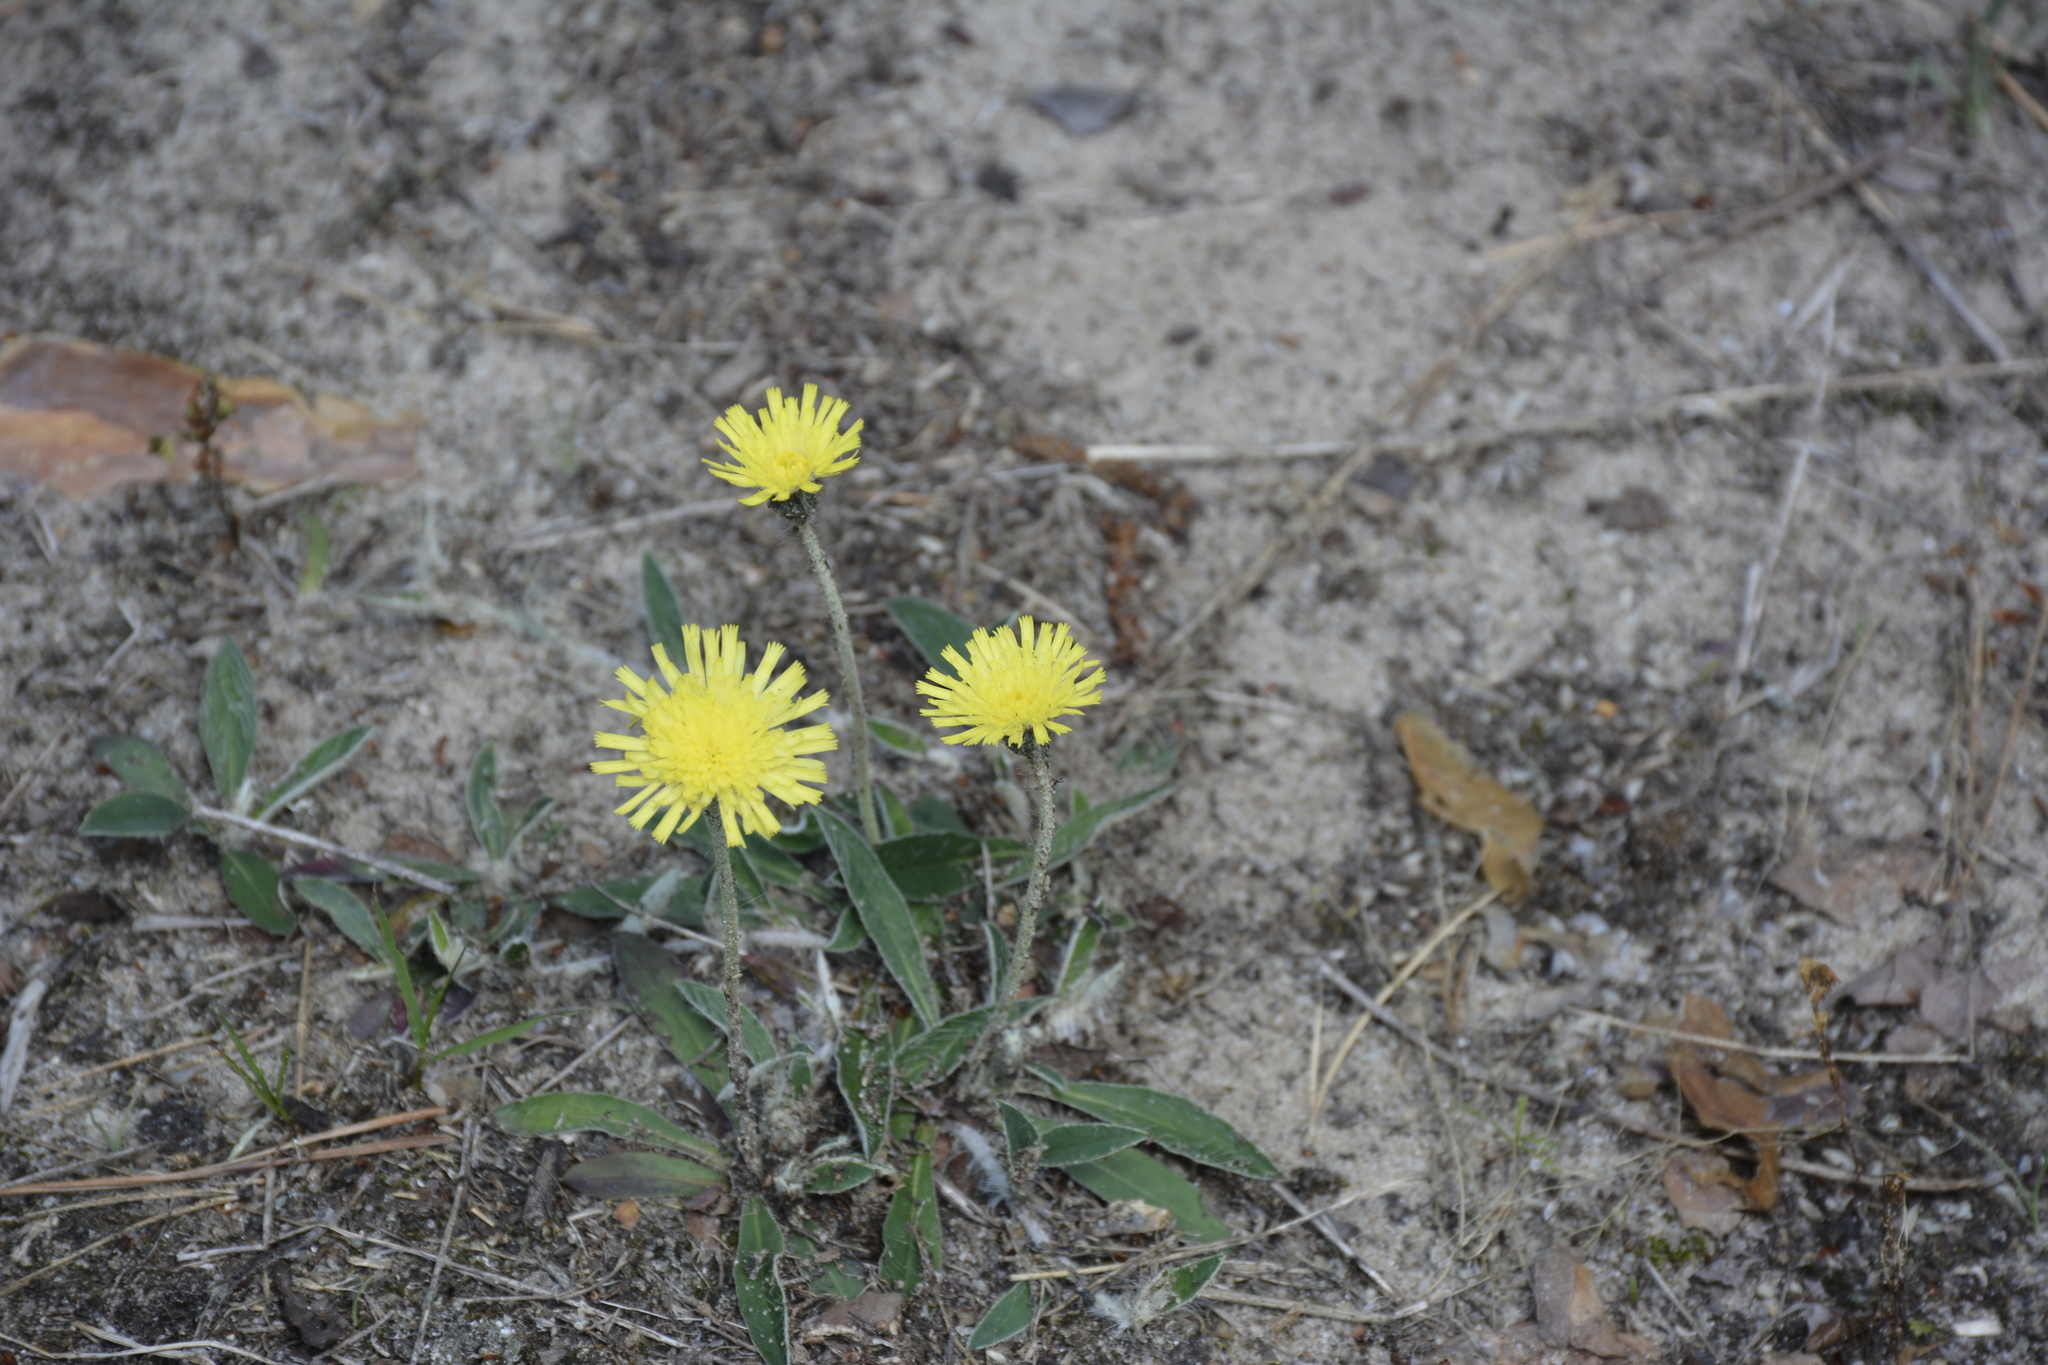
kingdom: Plantae
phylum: Tracheophyta
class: Magnoliopsida
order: Asterales
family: Asteraceae
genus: Pilosella
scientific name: Pilosella officinarum
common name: Mouse-ear hawkweed
